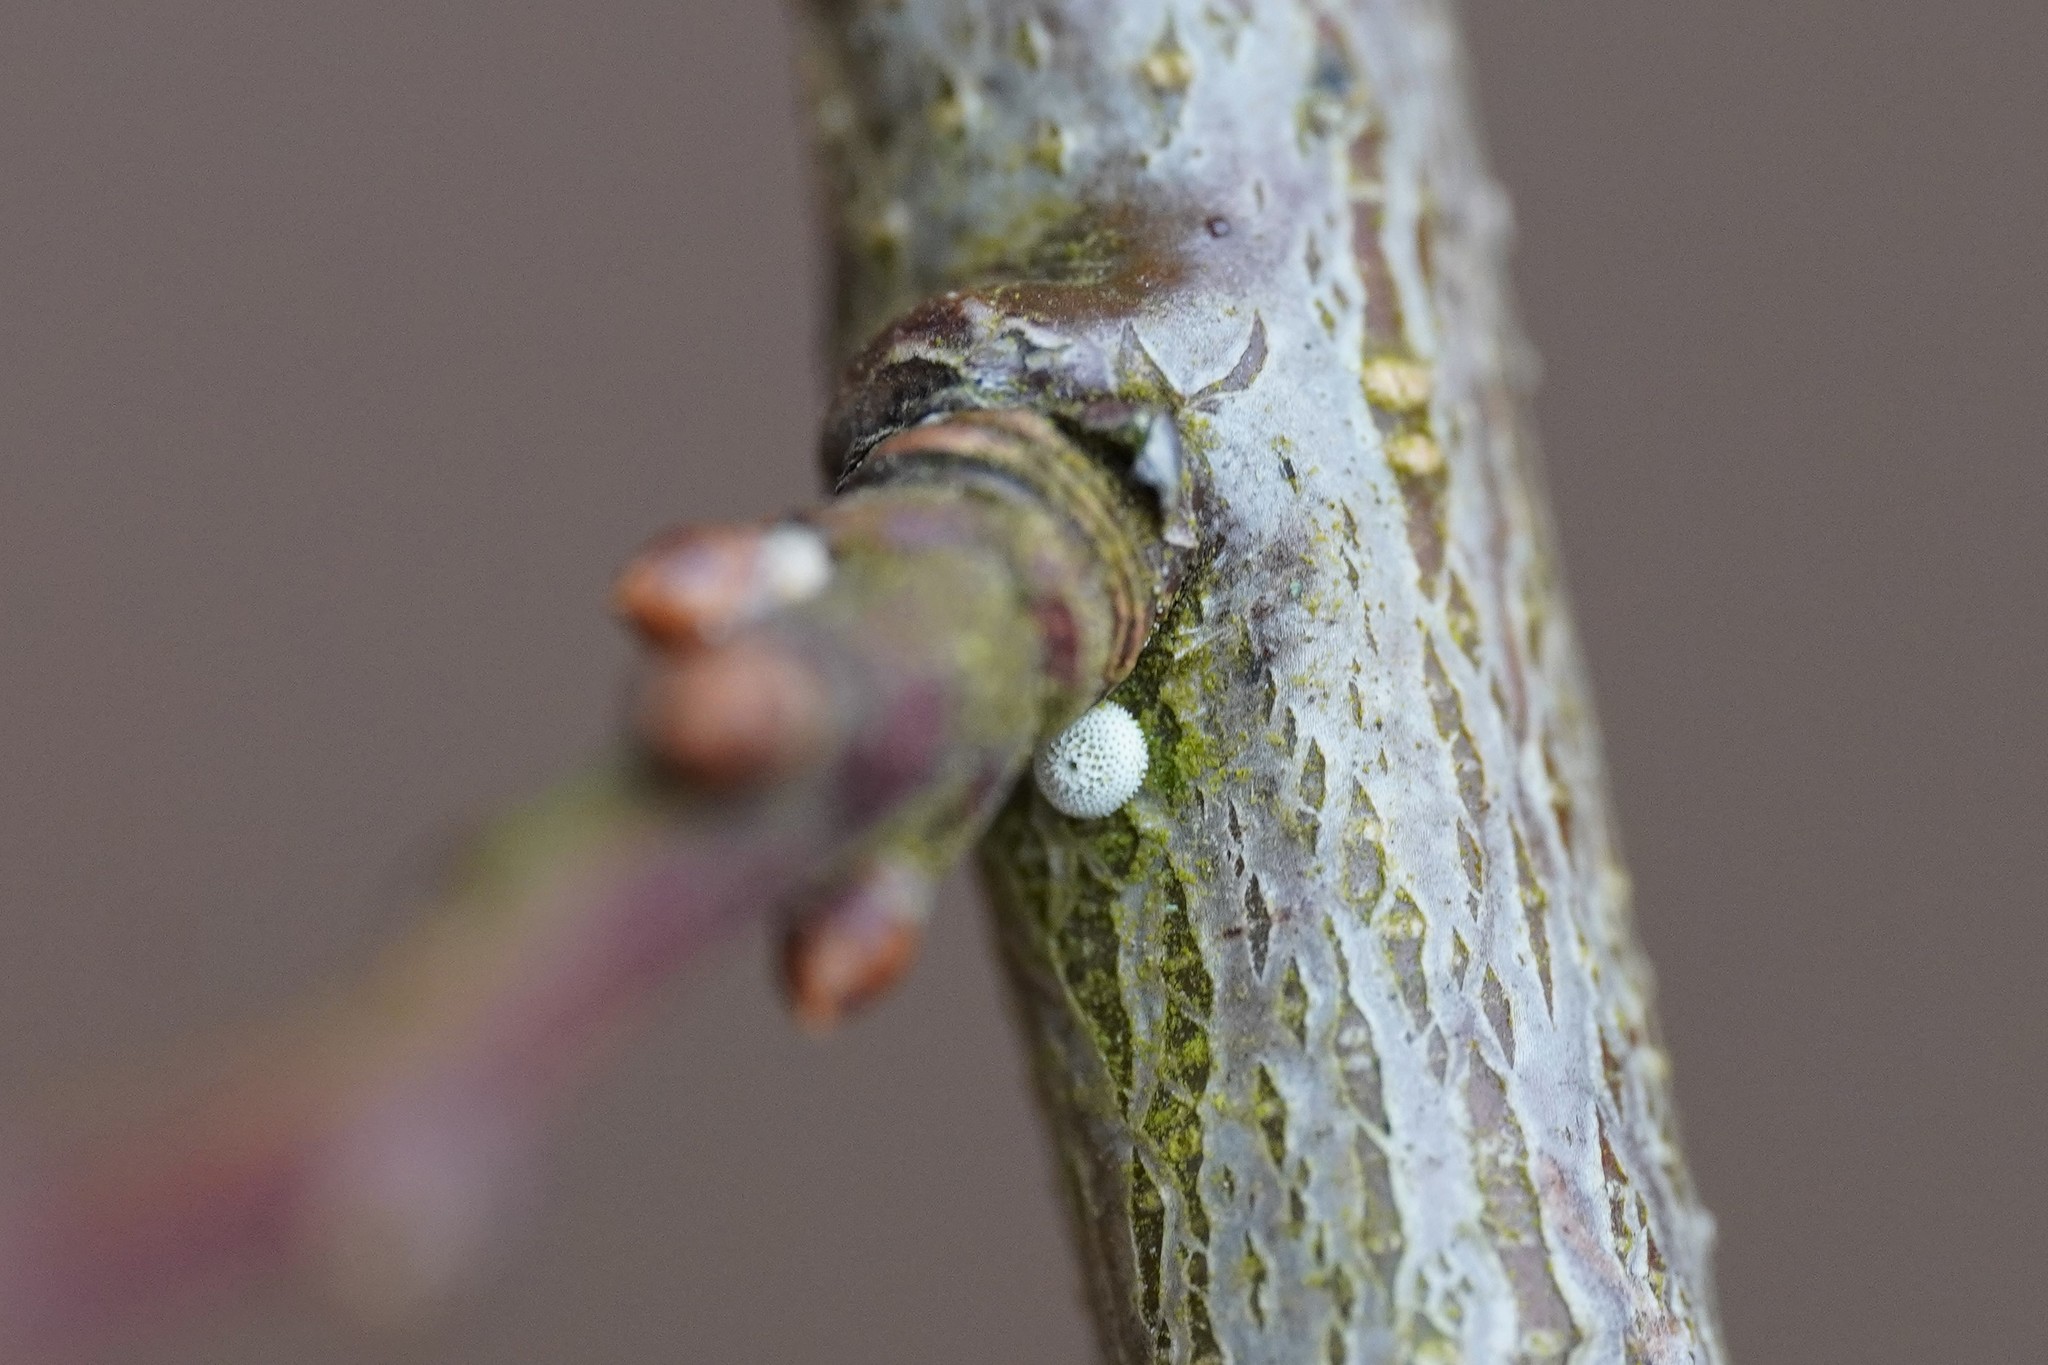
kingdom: Animalia
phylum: Arthropoda
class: Insecta
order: Lepidoptera
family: Lycaenidae
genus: Thecla
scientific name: Thecla betulae
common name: Brown hairstreak
